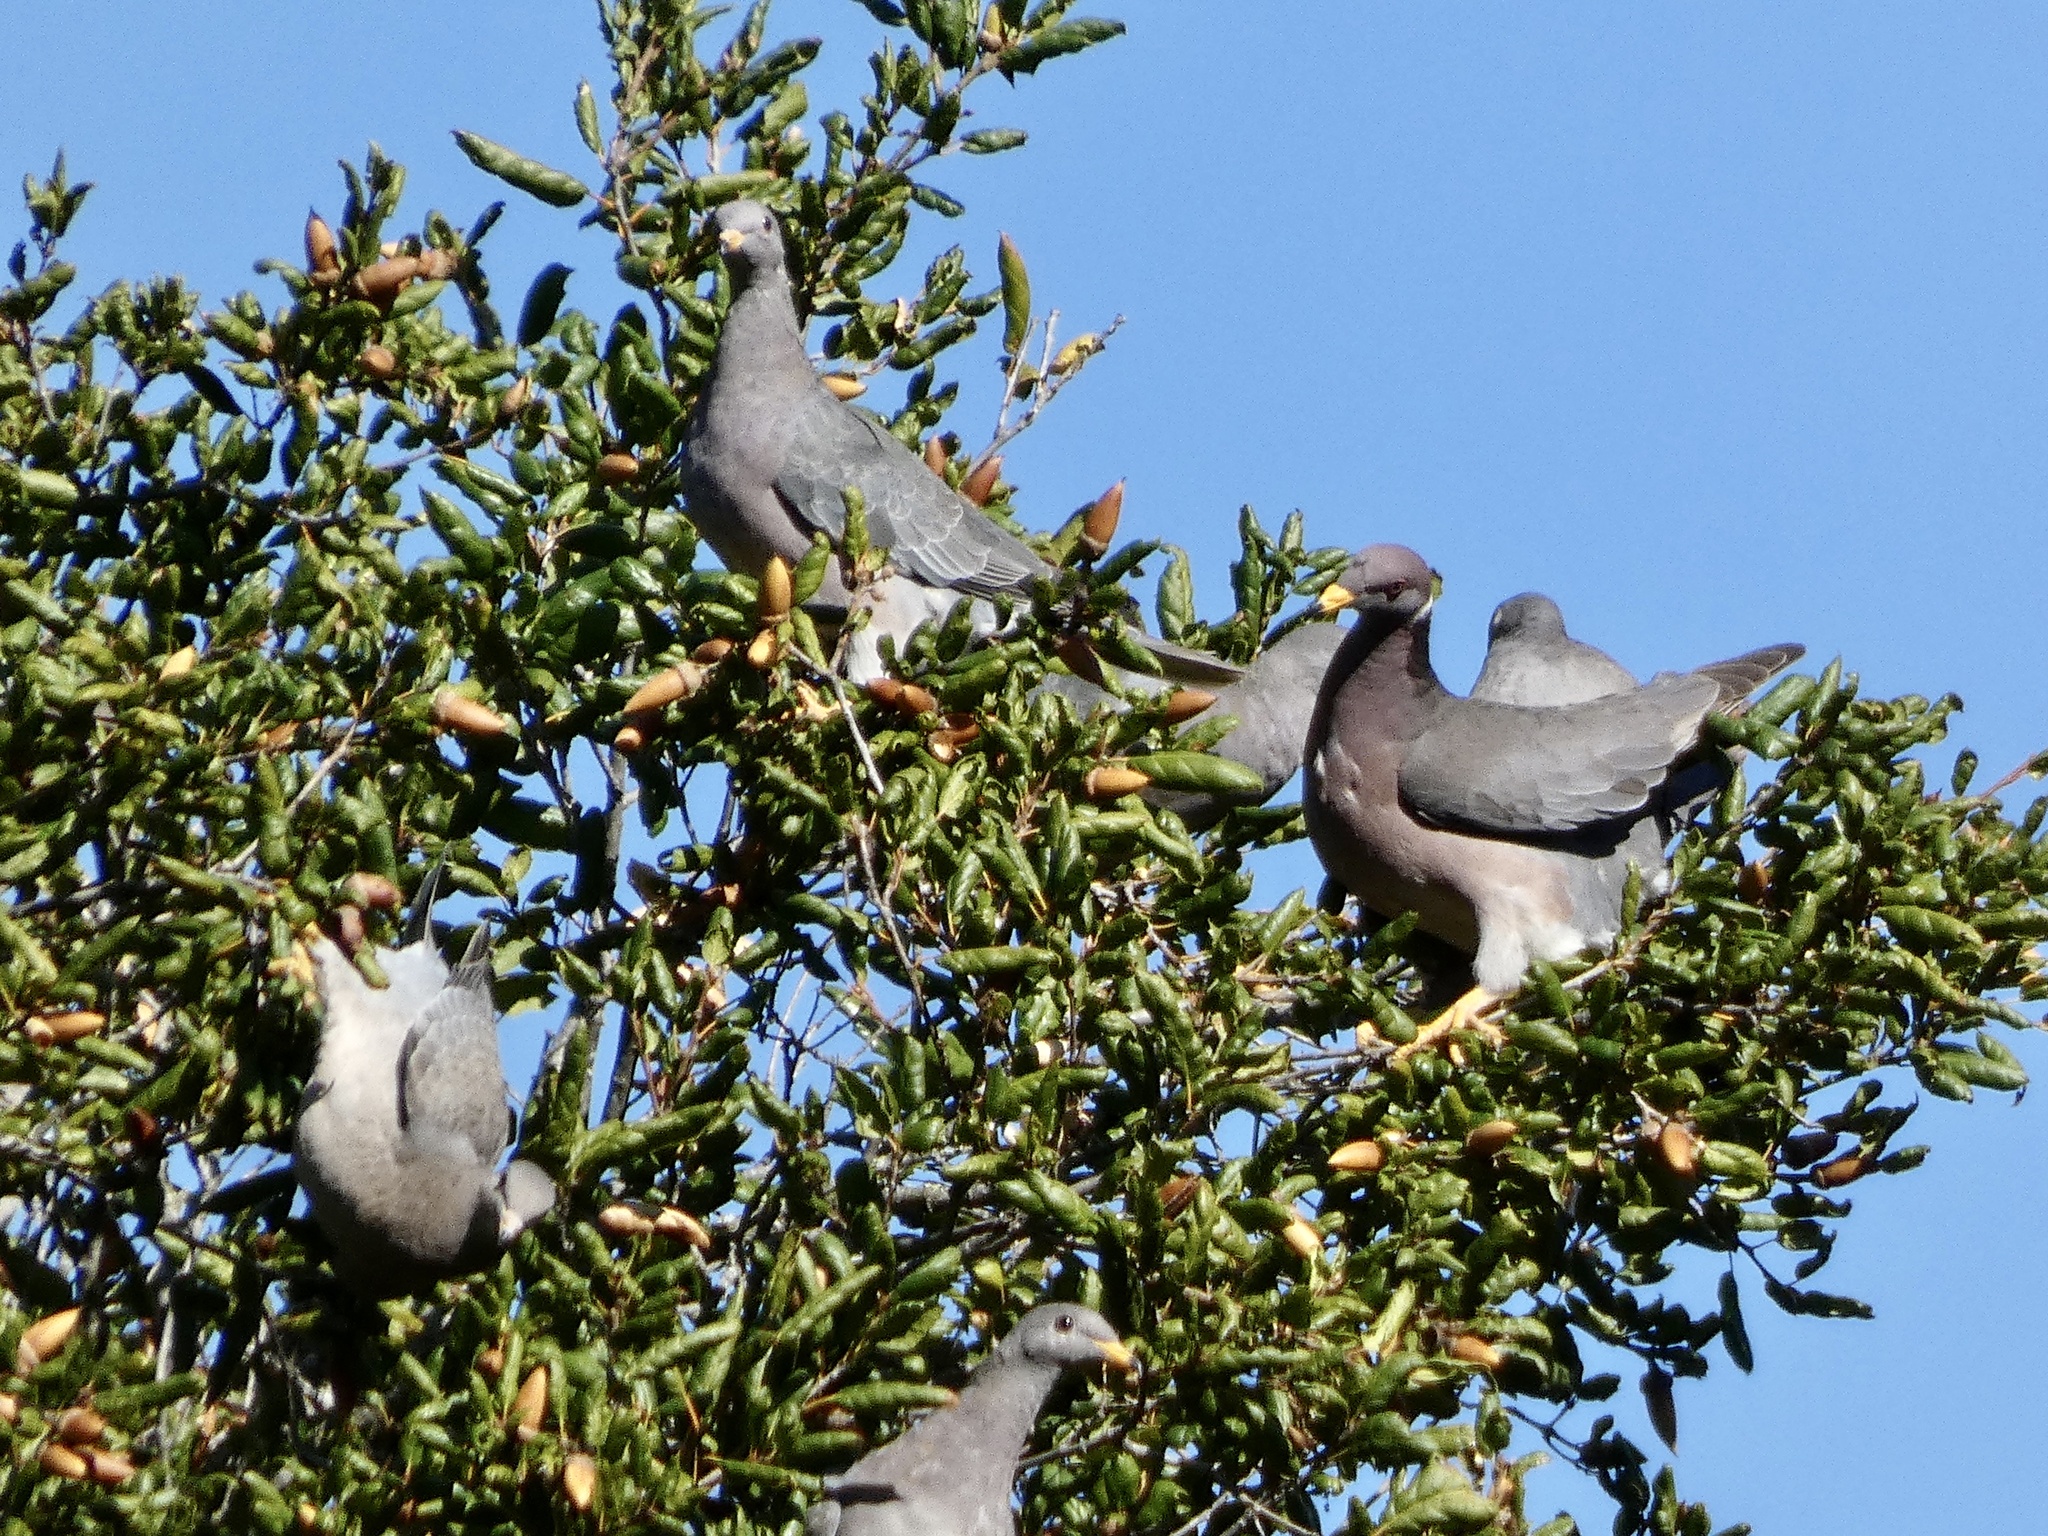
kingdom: Animalia
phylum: Chordata
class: Aves
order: Columbiformes
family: Columbidae
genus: Patagioenas
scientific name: Patagioenas fasciata
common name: Band-tailed pigeon
